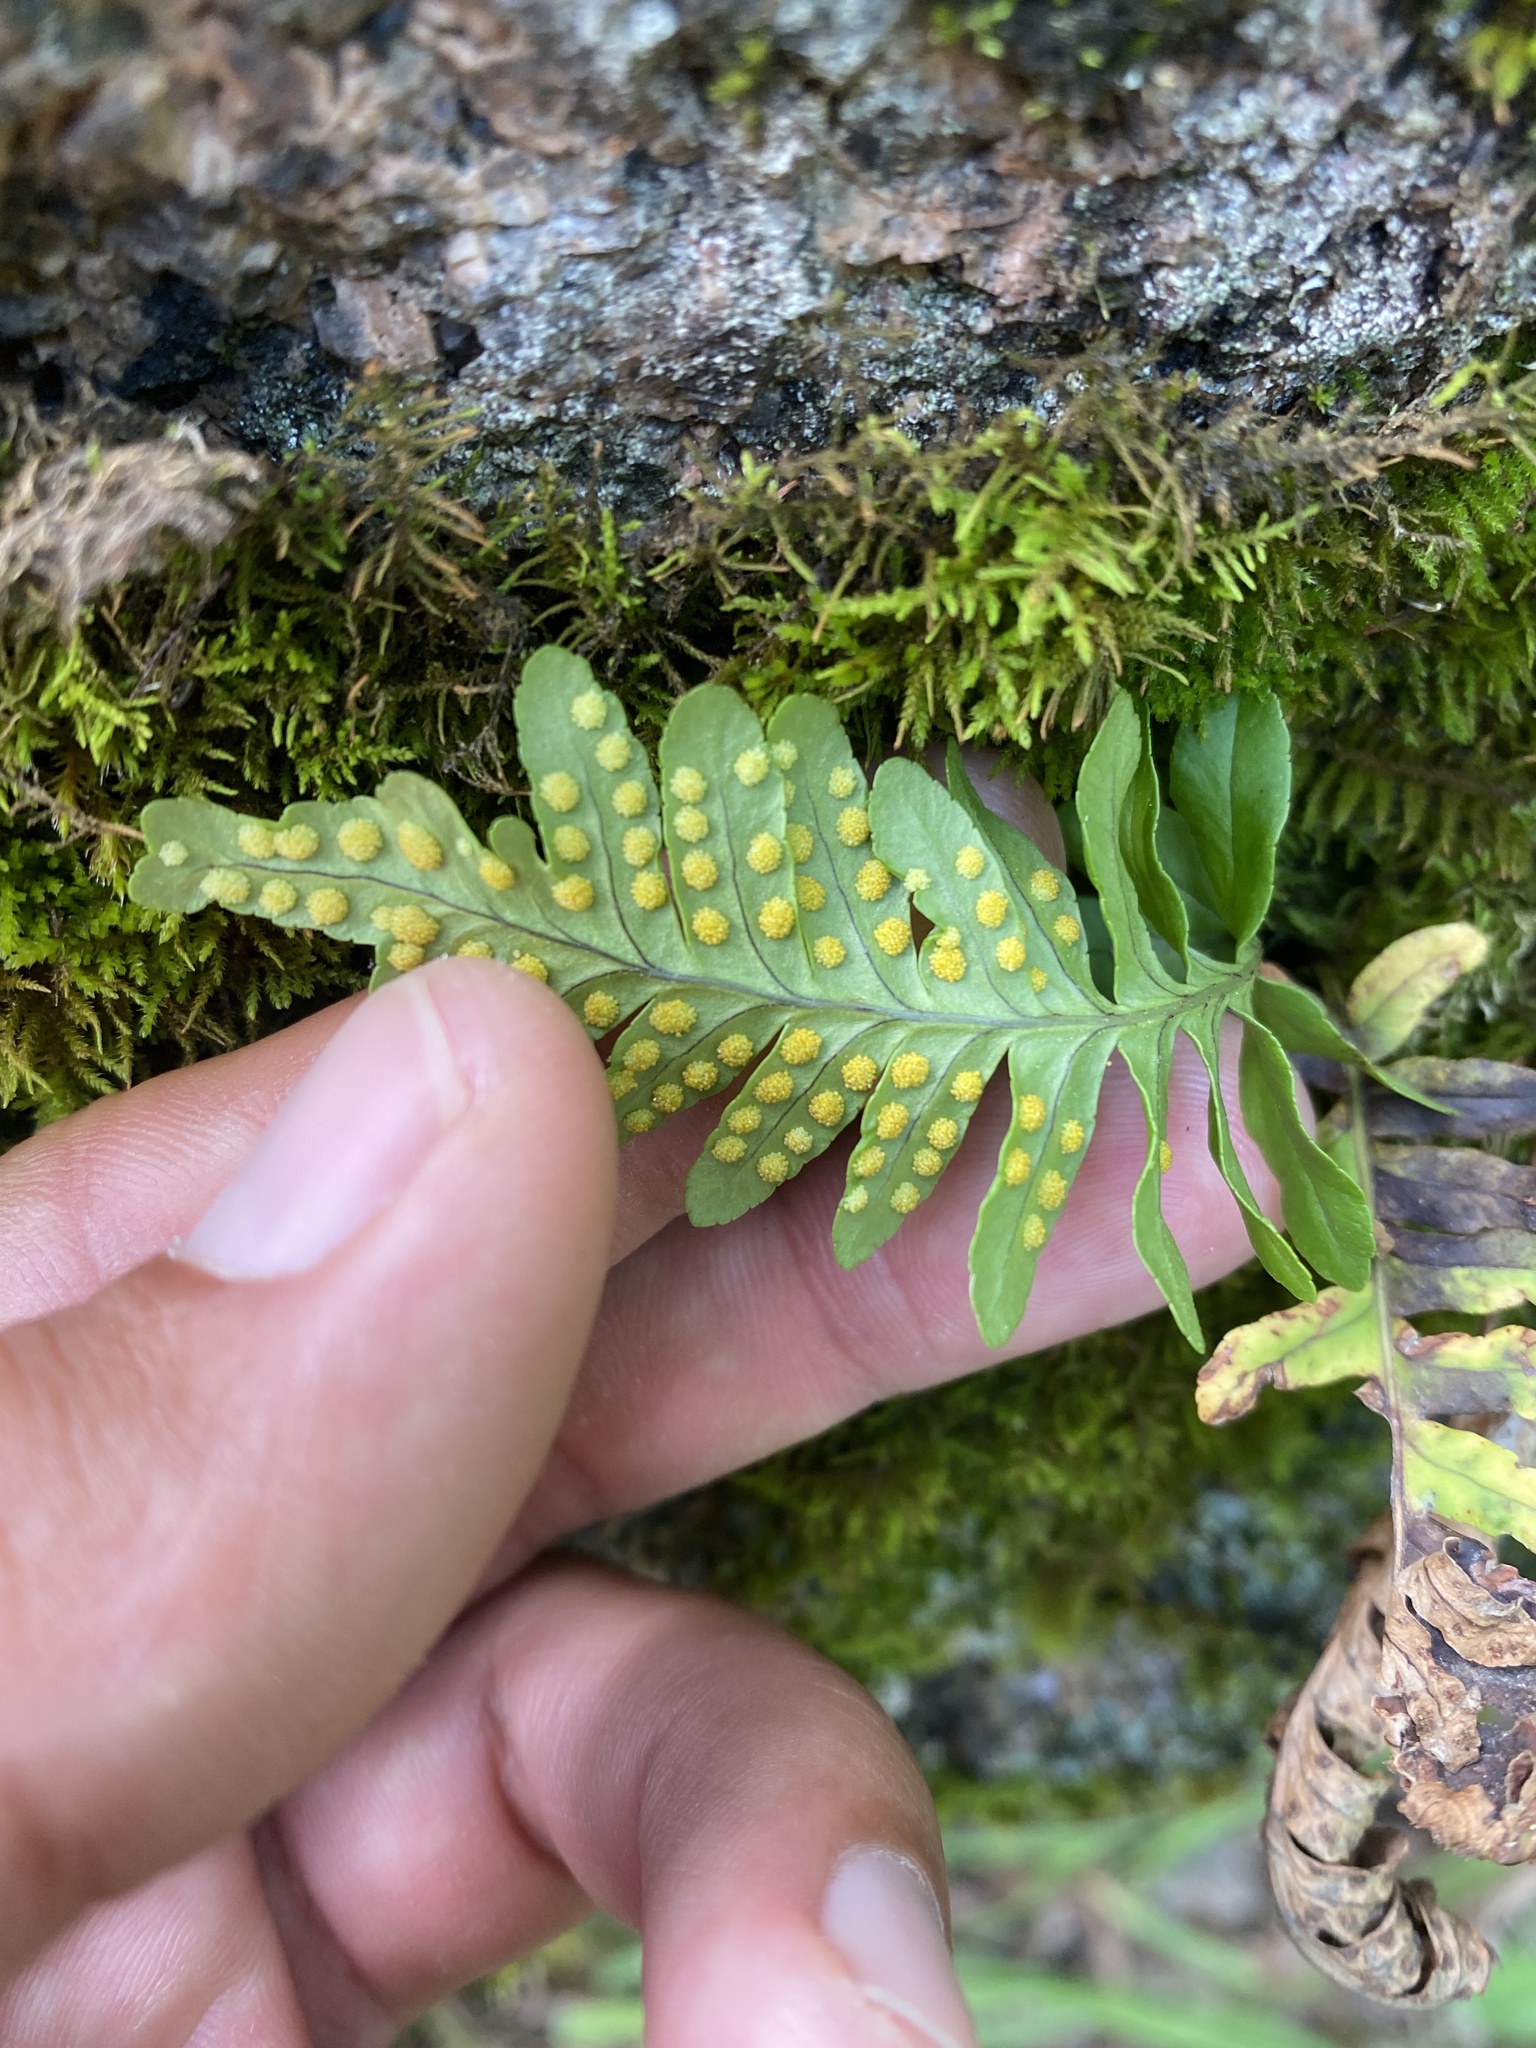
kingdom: Plantae
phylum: Tracheophyta
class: Polypodiopsida
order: Polypodiales
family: Polypodiaceae
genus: Polypodium
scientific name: Polypodium sibiricum
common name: Siberian polypody
